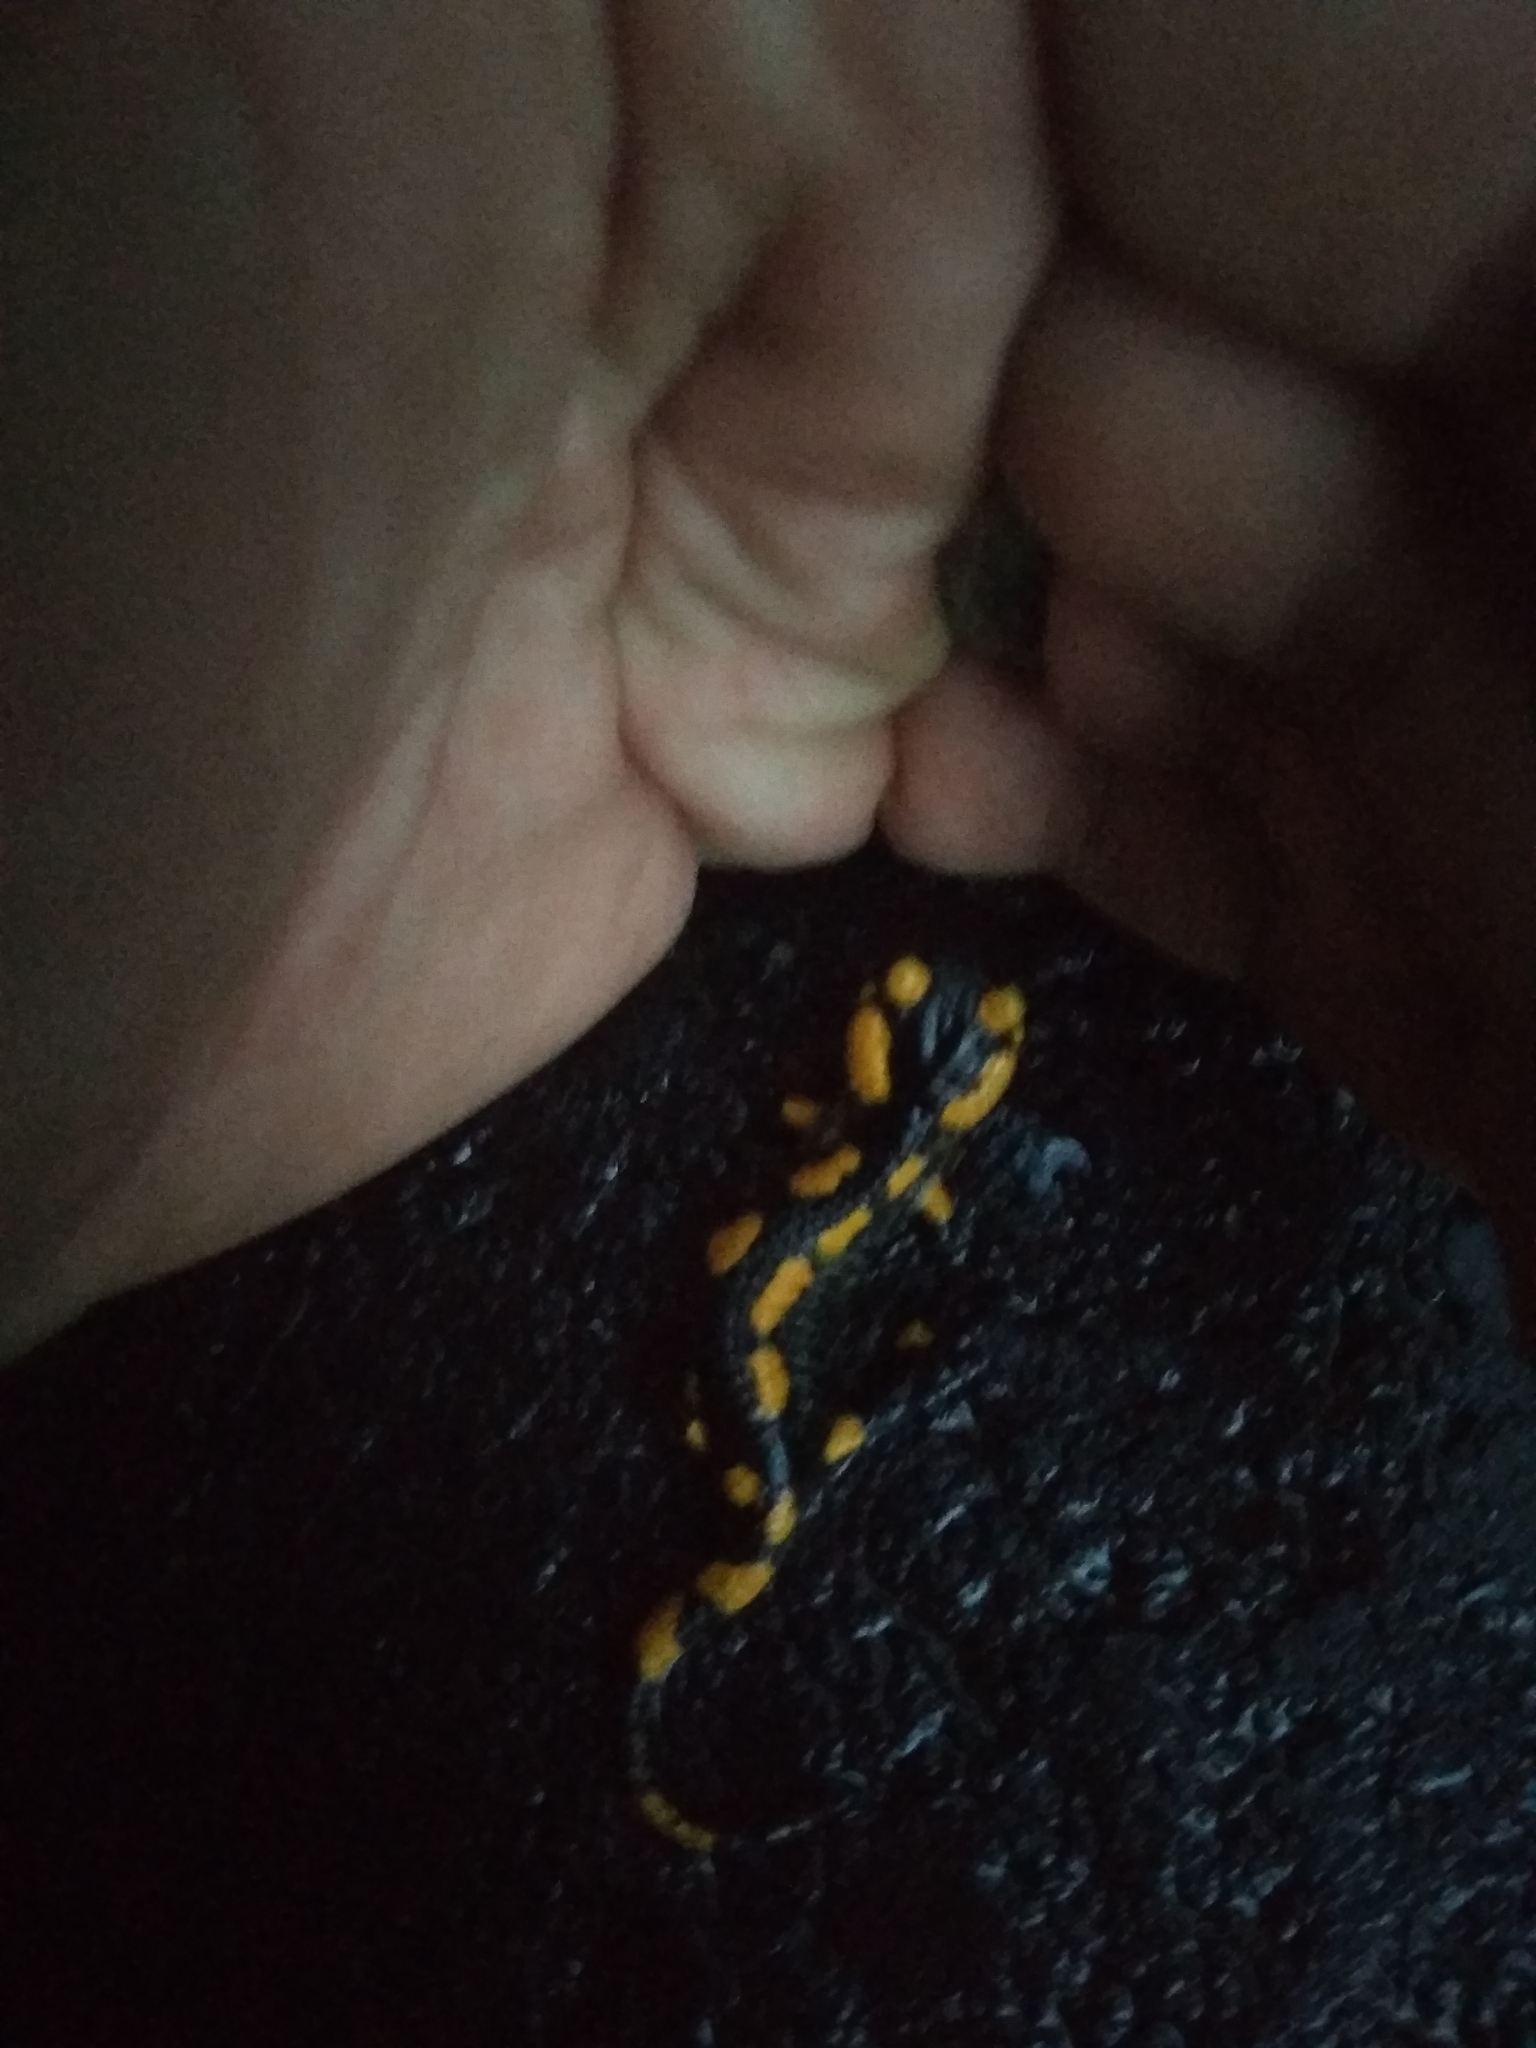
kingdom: Animalia
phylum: Chordata
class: Amphibia
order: Caudata
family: Salamandridae
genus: Salamandra
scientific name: Salamandra salamandra
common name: Fire salamander
